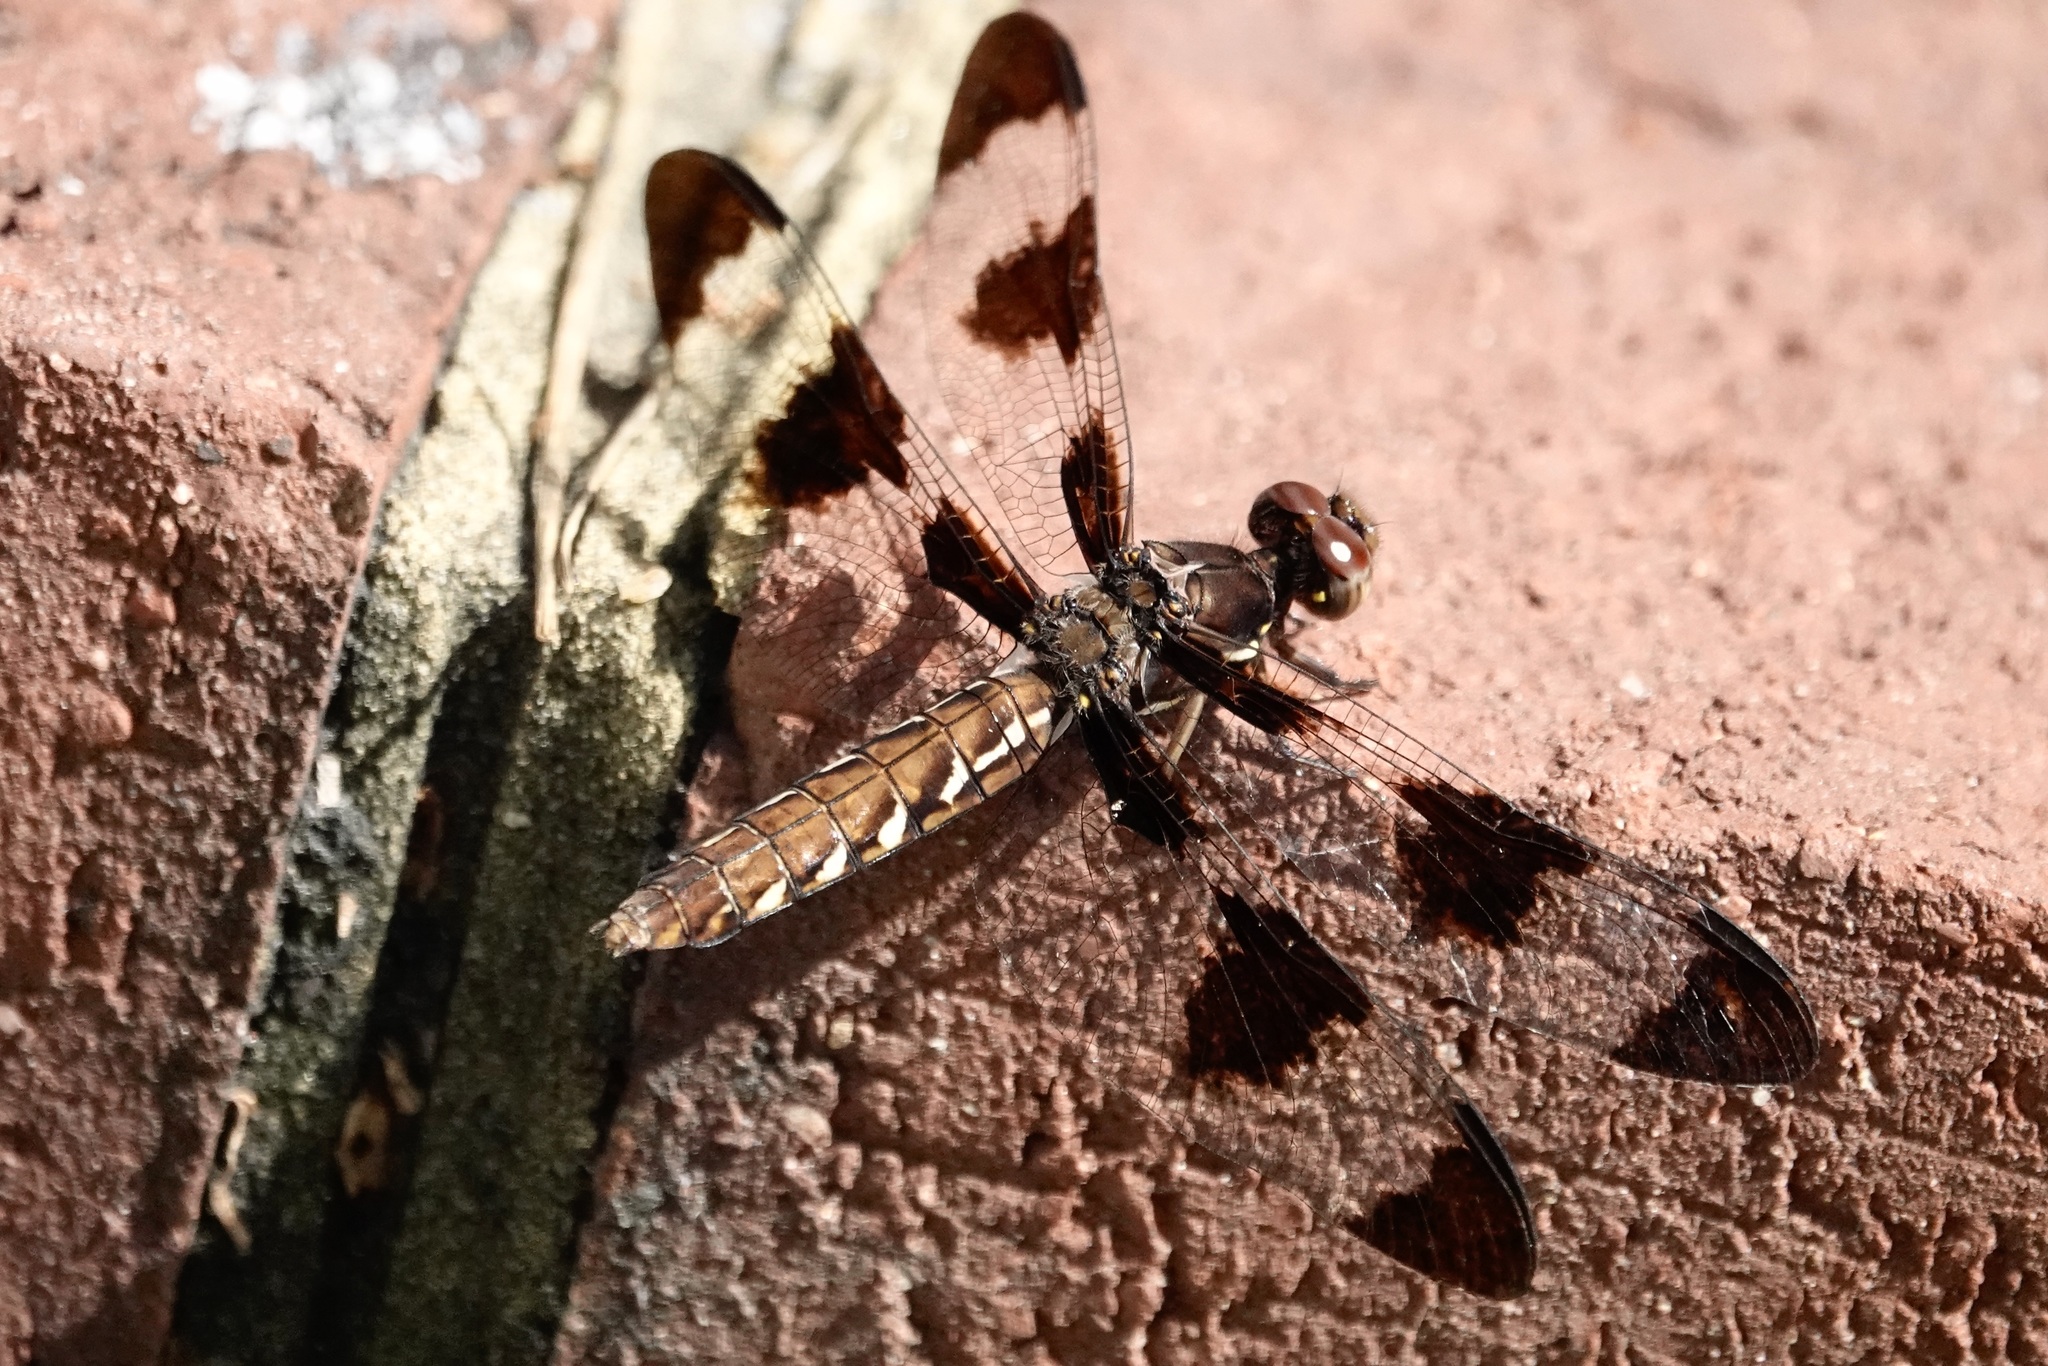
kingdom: Animalia
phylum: Arthropoda
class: Insecta
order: Odonata
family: Libellulidae
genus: Plathemis
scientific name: Plathemis lydia
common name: Common whitetail
